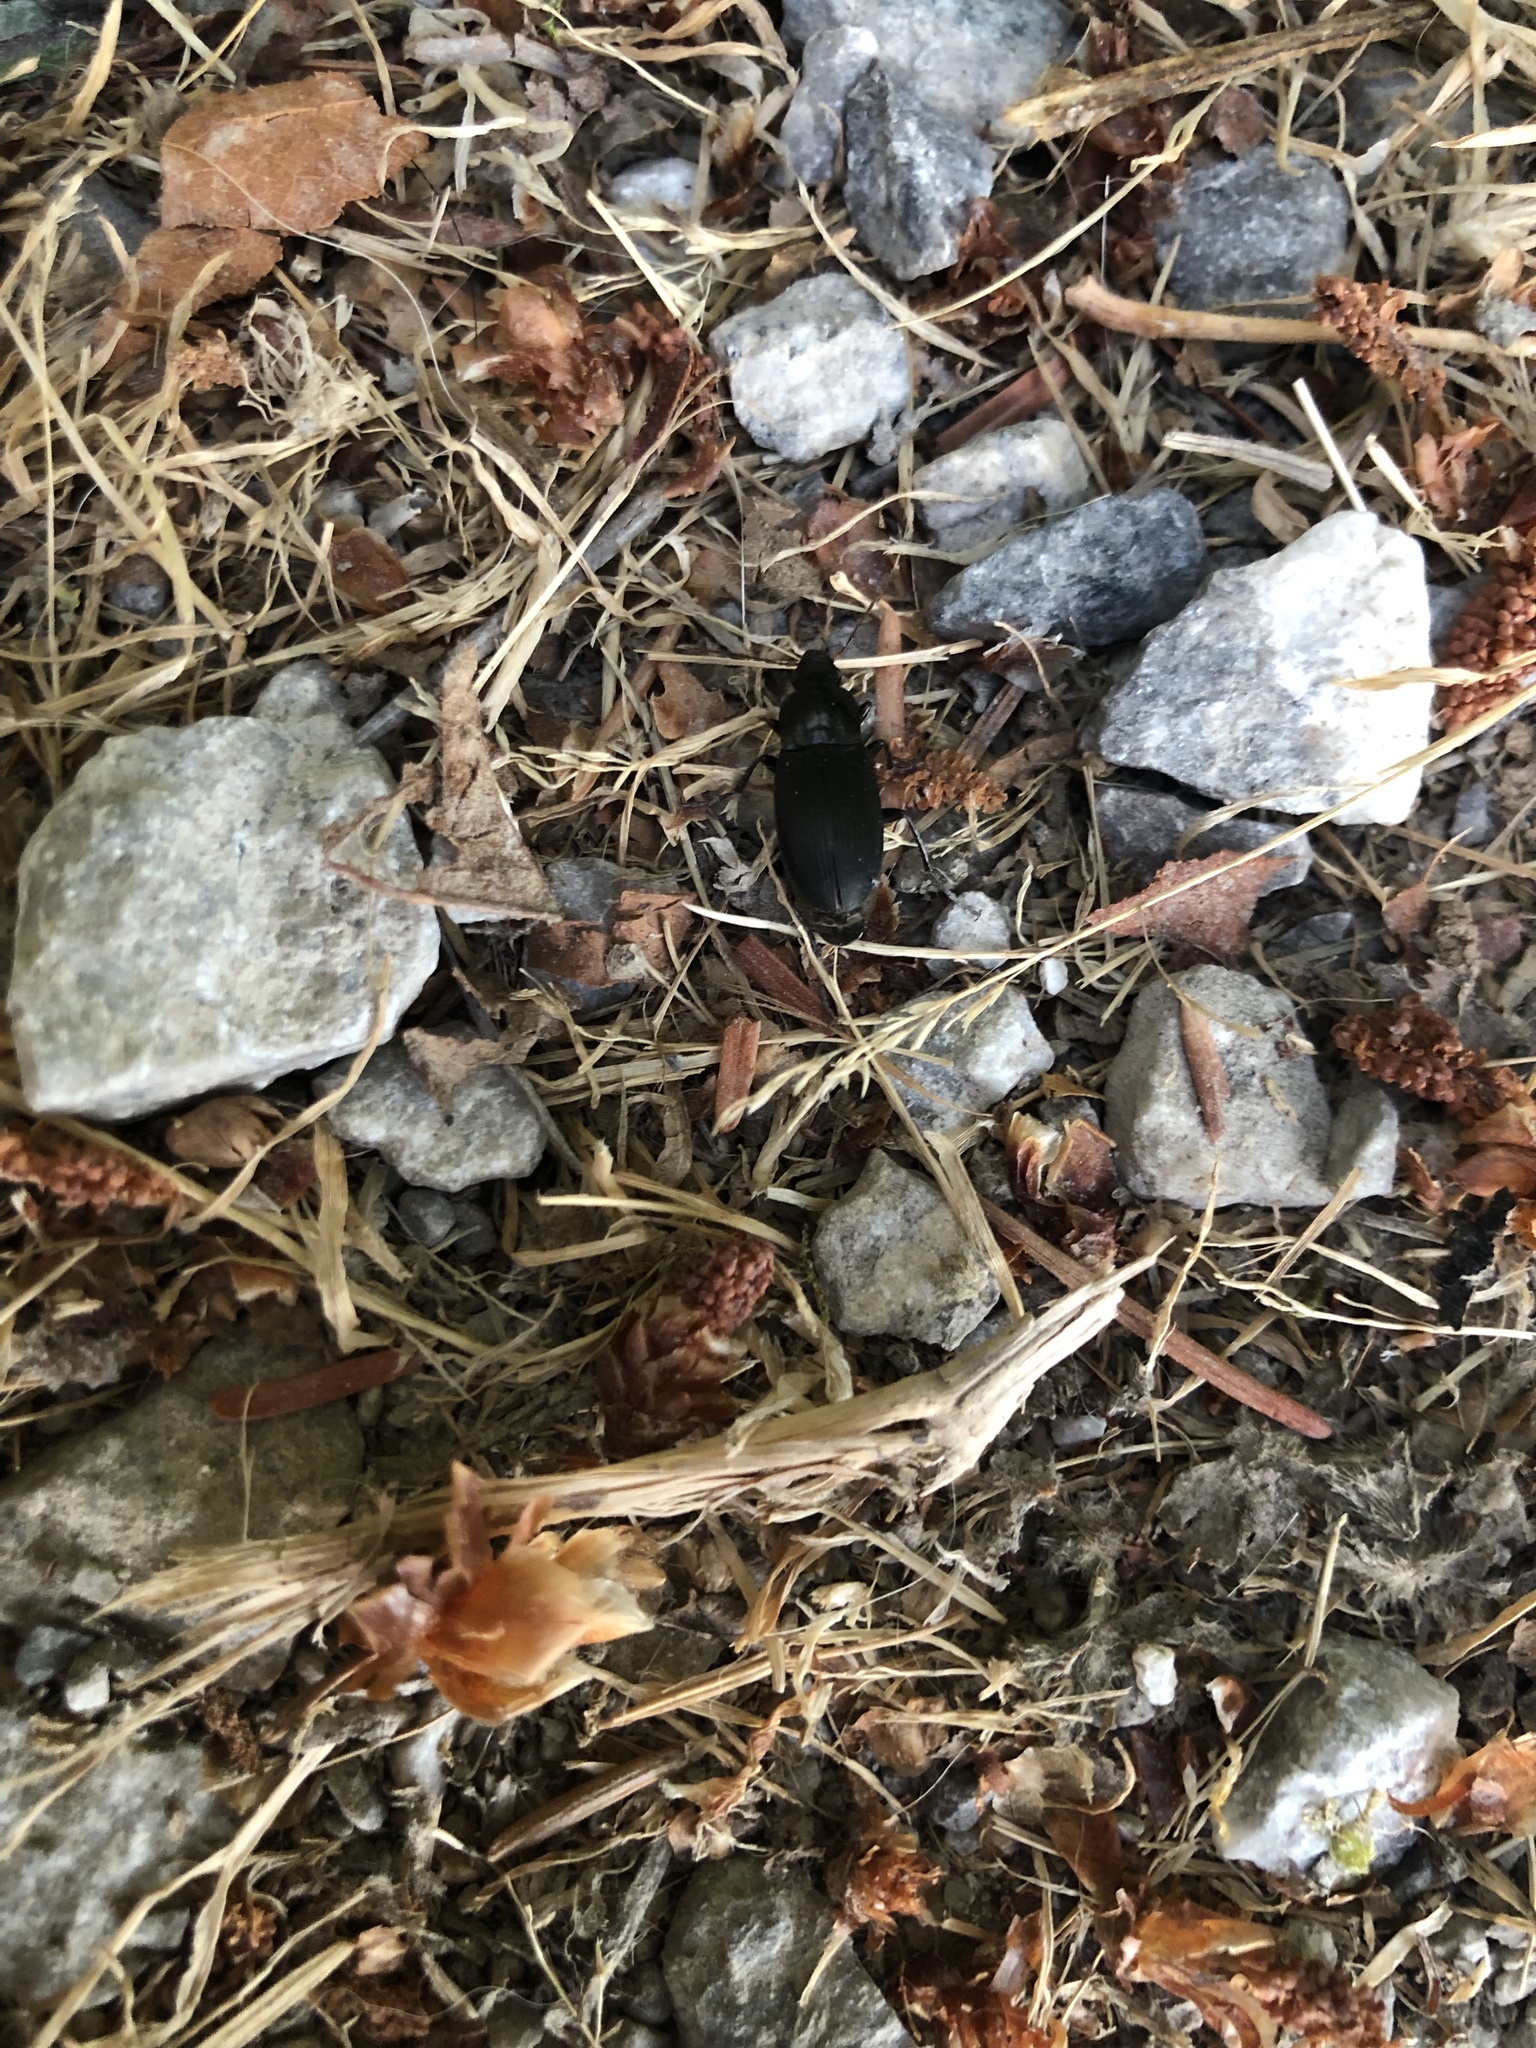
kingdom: Animalia
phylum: Arthropoda
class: Insecta
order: Coleoptera
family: Carabidae
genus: Calathus
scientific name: Calathus fuscipes
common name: Dark-footed harp ground beetle
